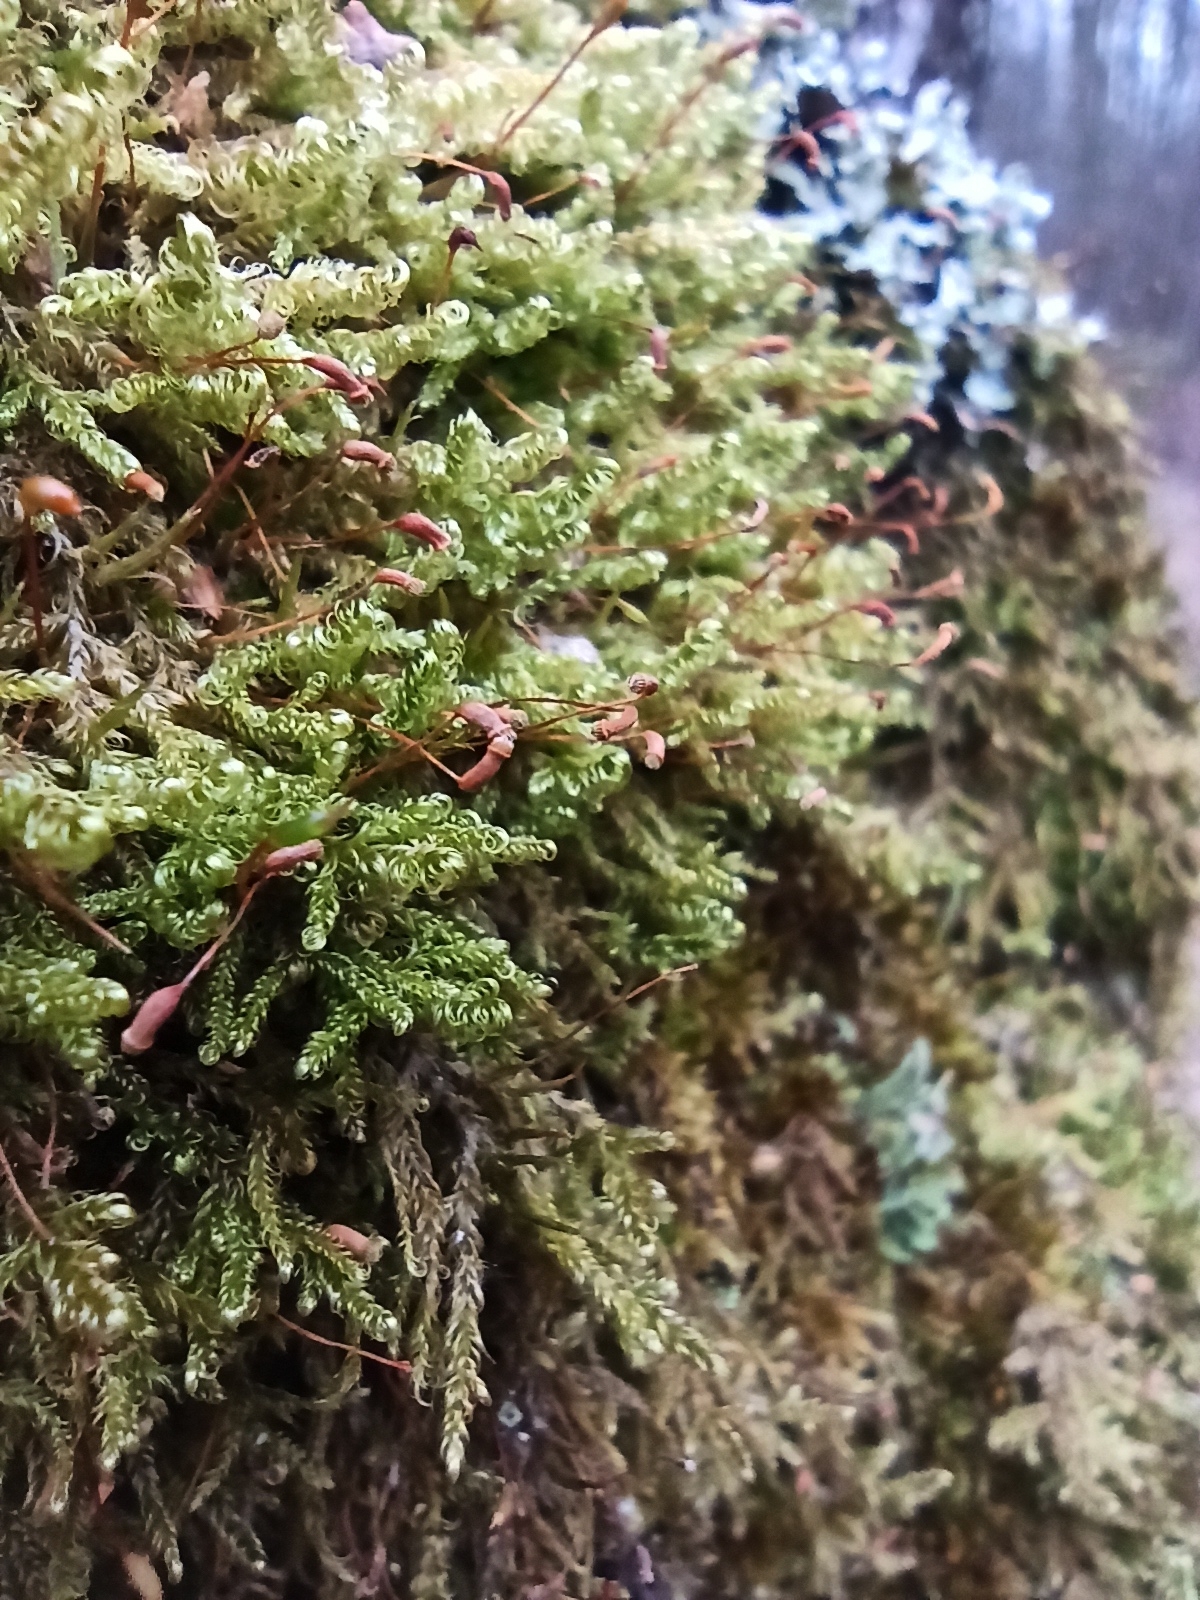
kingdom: Plantae
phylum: Bryophyta
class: Bryopsida
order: Hypnales
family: Scorpidiaceae
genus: Sanionia
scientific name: Sanionia uncinata
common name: Sickle moss
